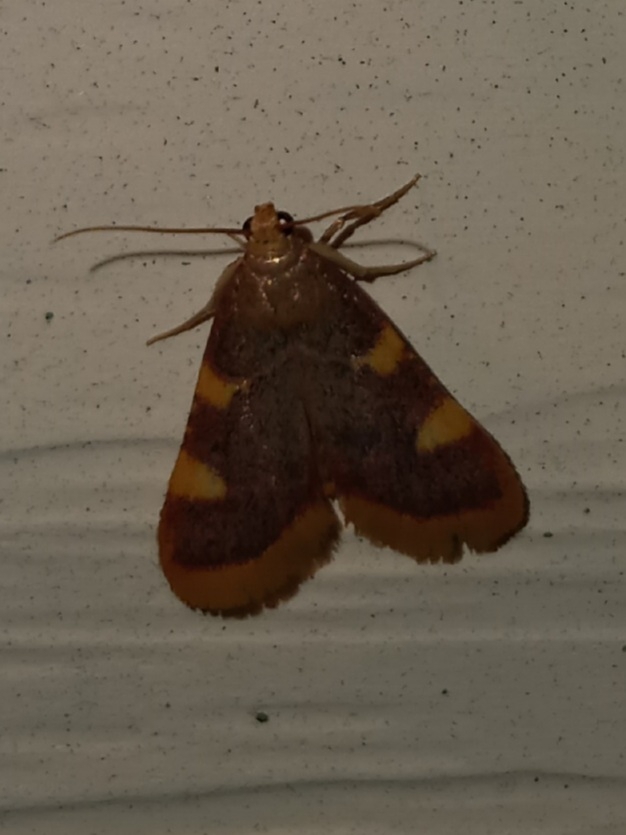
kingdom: Animalia
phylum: Arthropoda
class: Insecta
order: Lepidoptera
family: Pyralidae
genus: Hypsopygia
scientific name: Hypsopygia costalis
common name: Gold triangle
